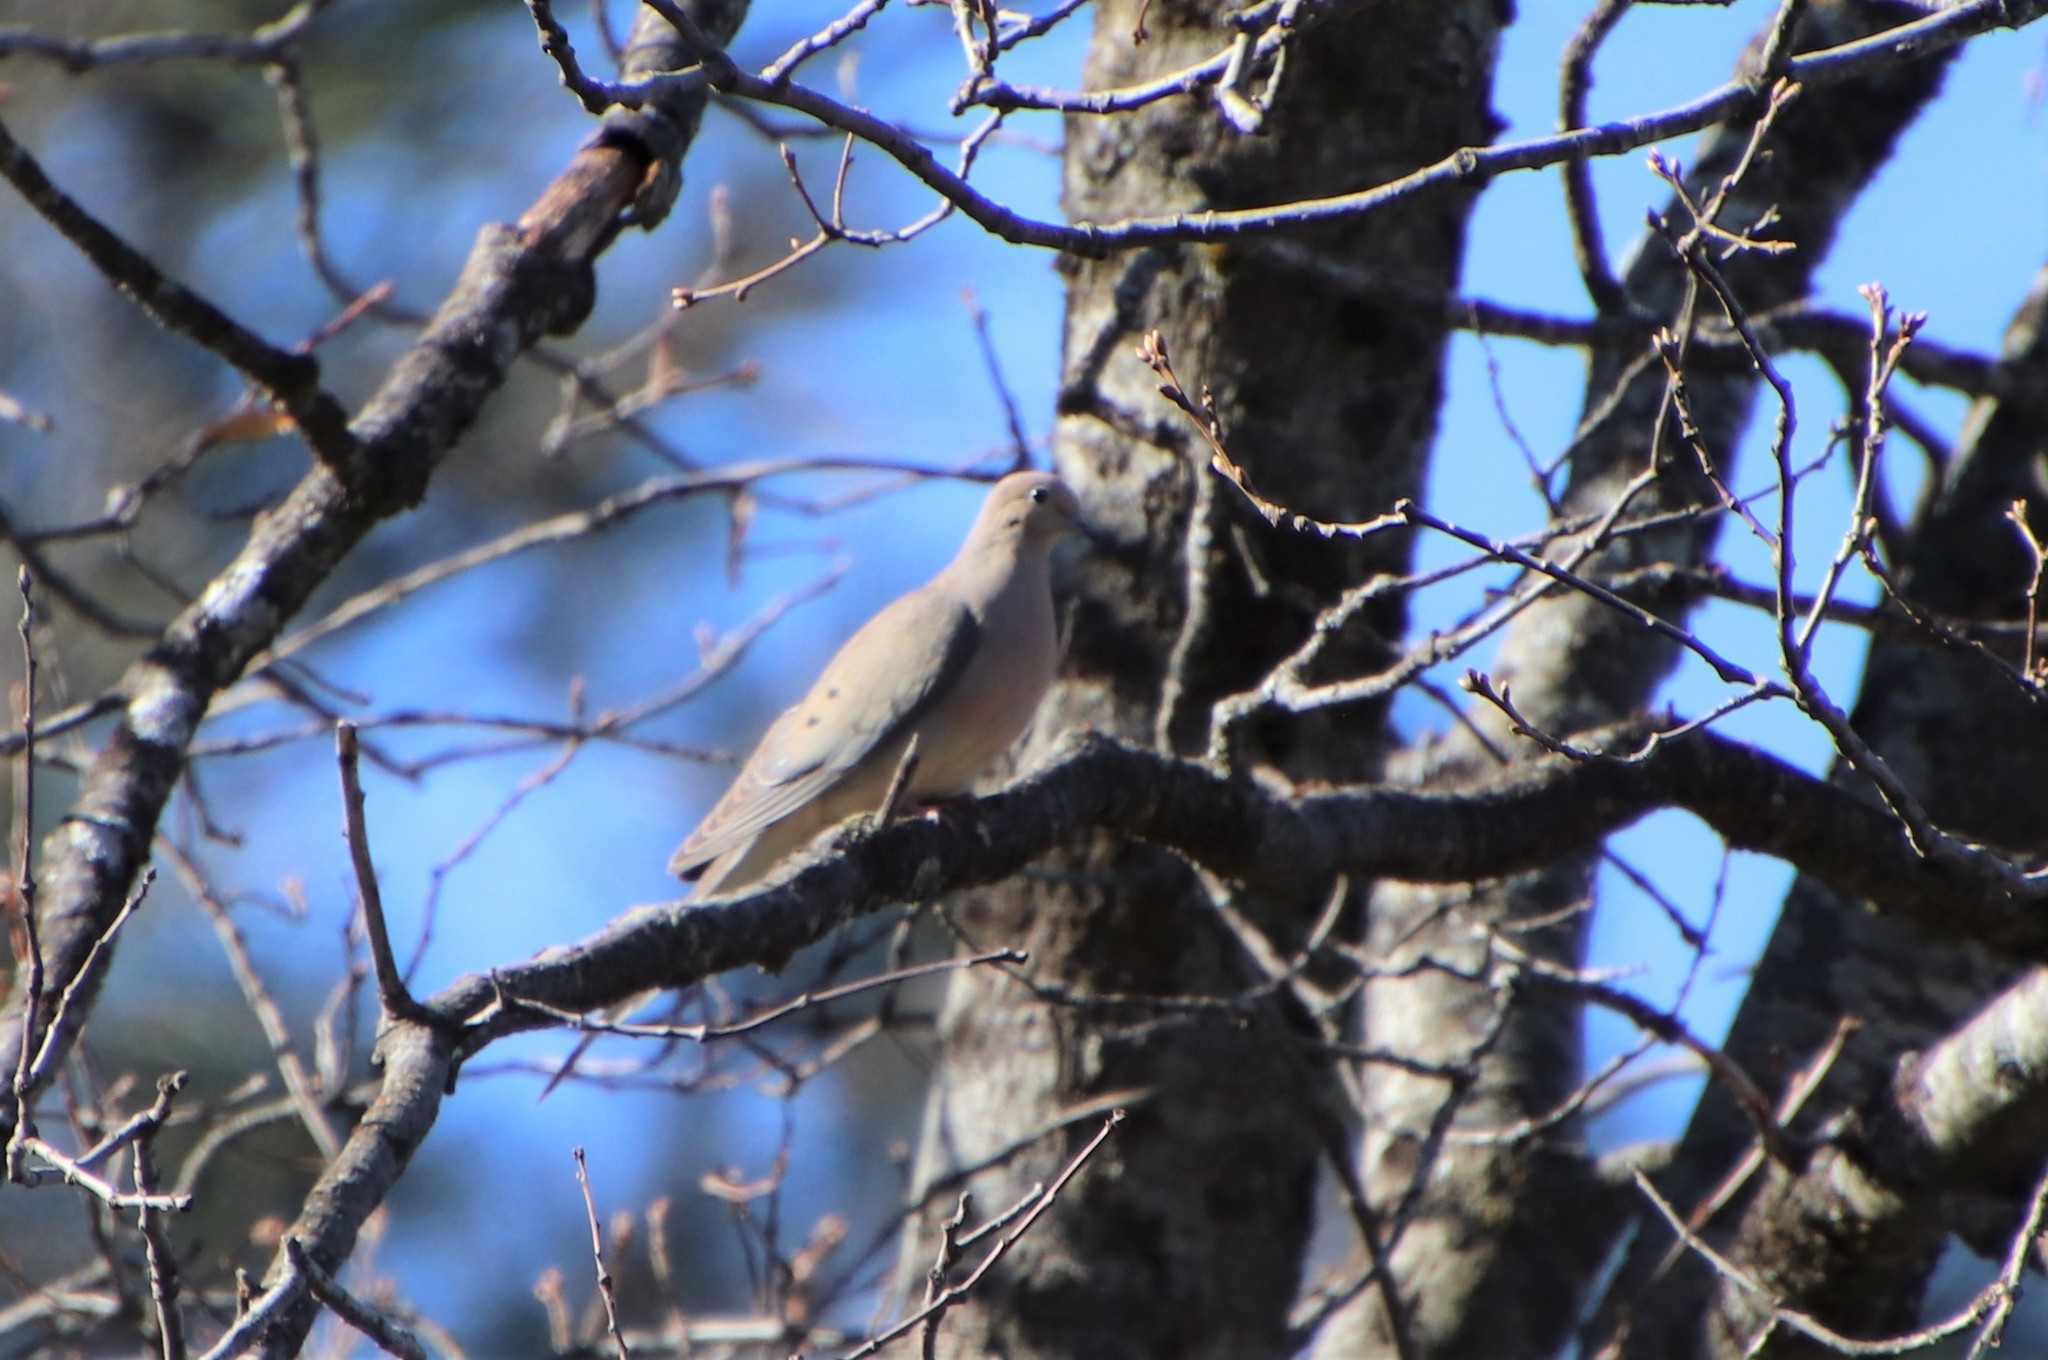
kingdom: Animalia
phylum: Chordata
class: Aves
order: Columbiformes
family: Columbidae
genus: Zenaida
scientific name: Zenaida macroura
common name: Mourning dove
